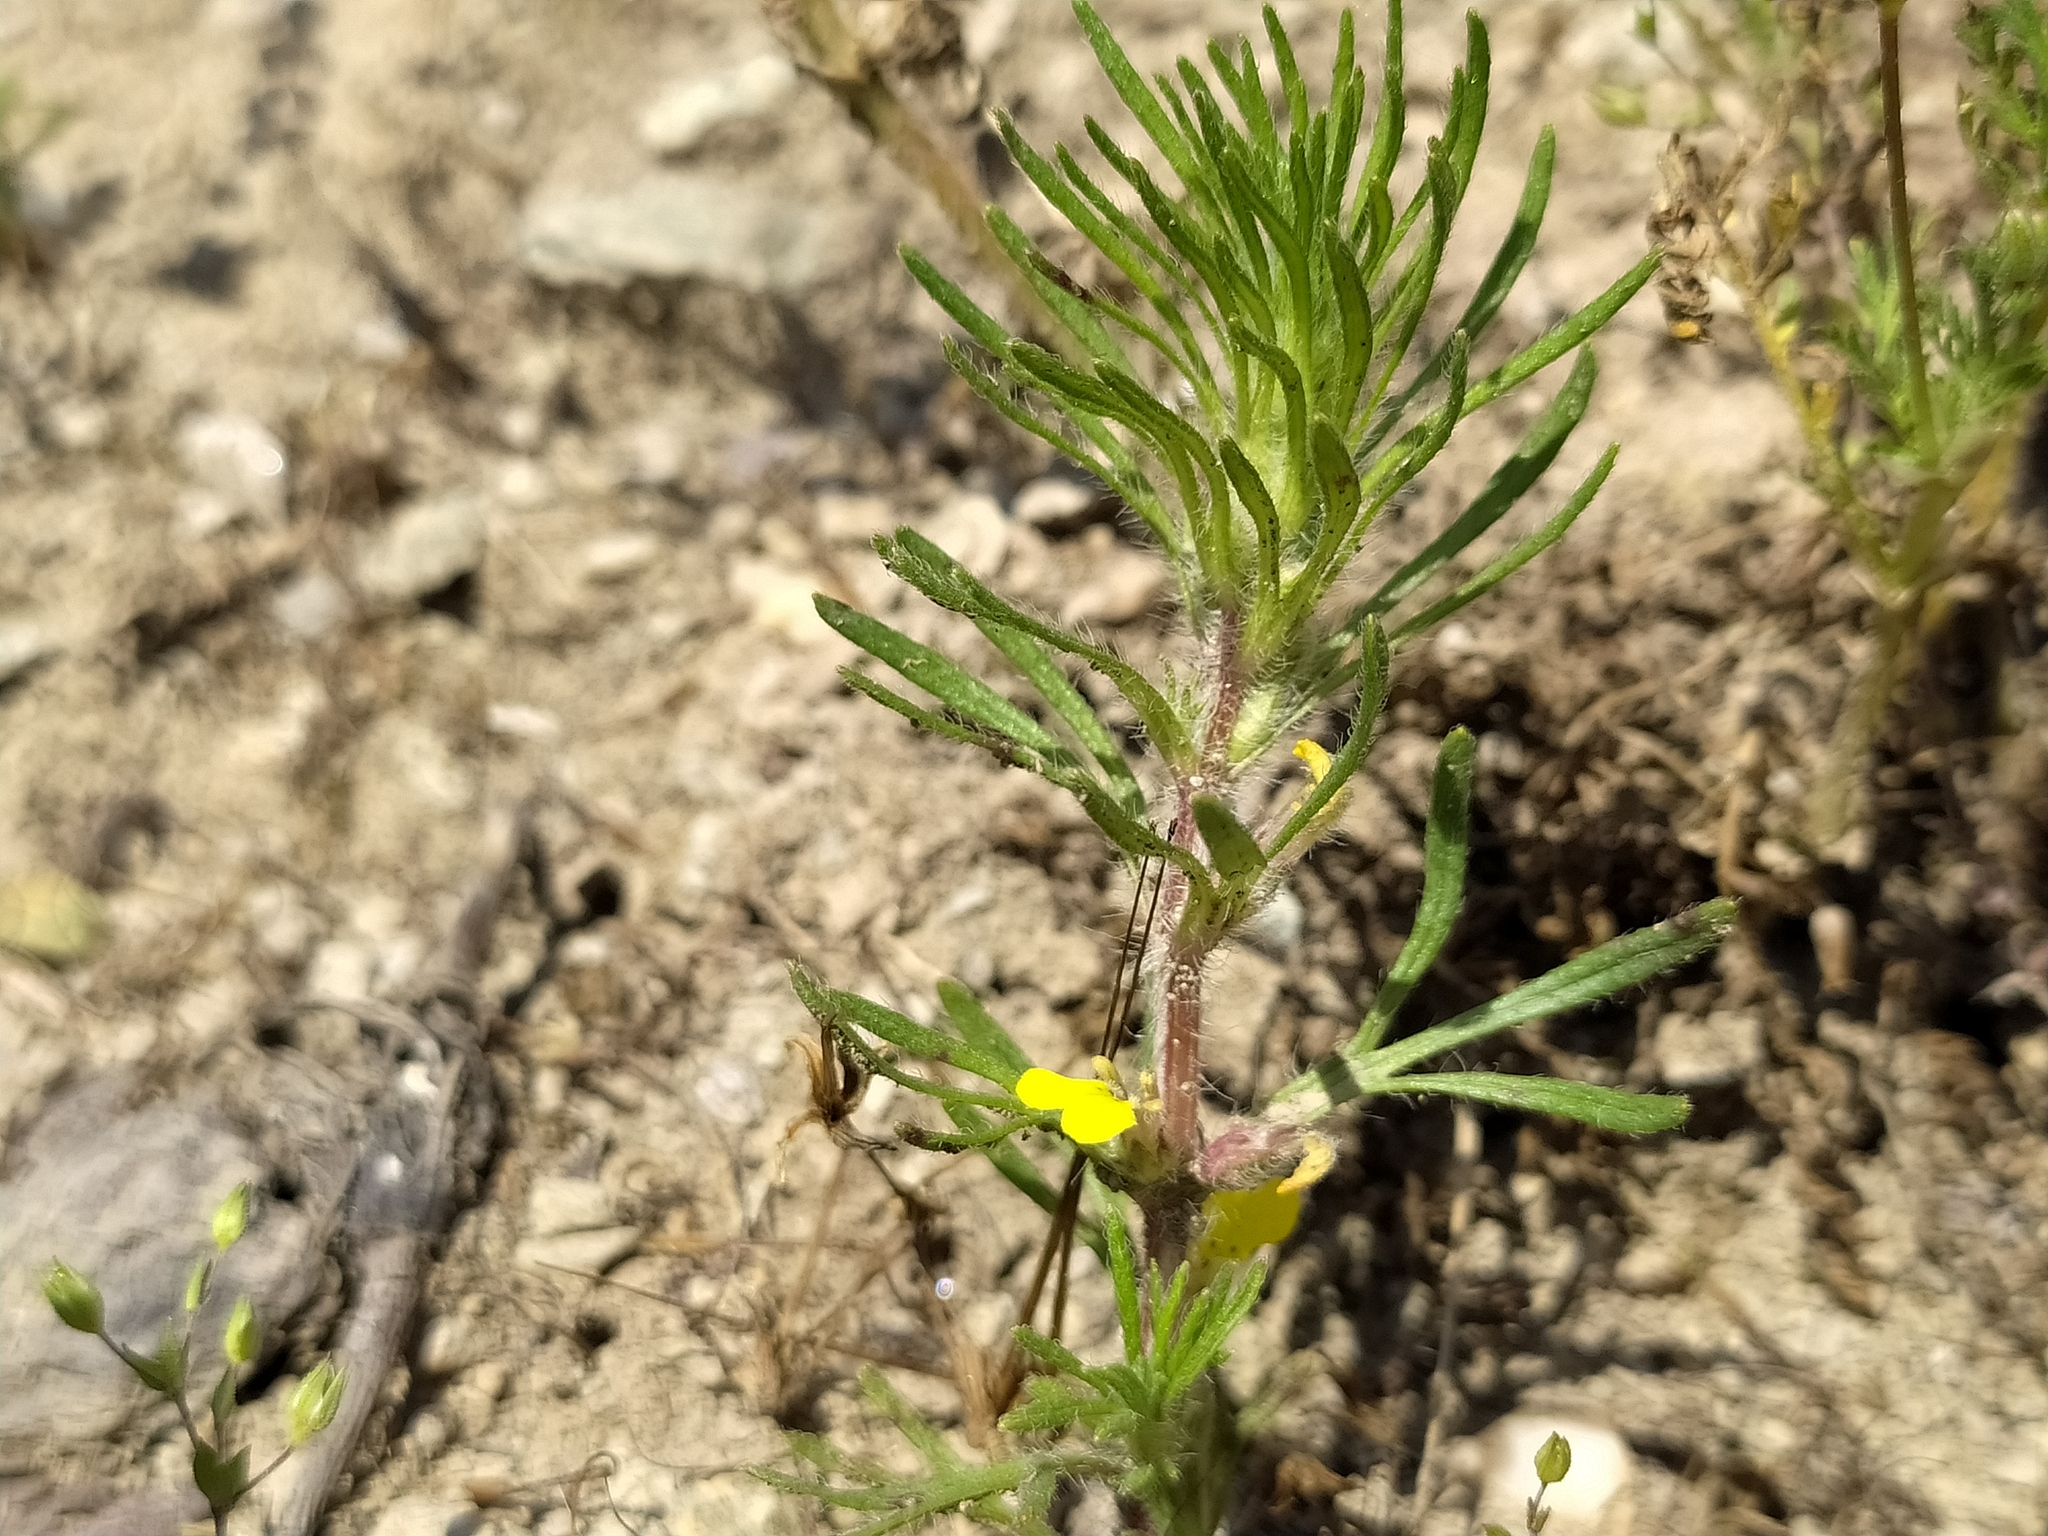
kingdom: Plantae
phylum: Tracheophyta
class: Magnoliopsida
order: Lamiales
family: Lamiaceae
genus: Ajuga
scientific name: Ajuga chamaepitys
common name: Ground-pine
